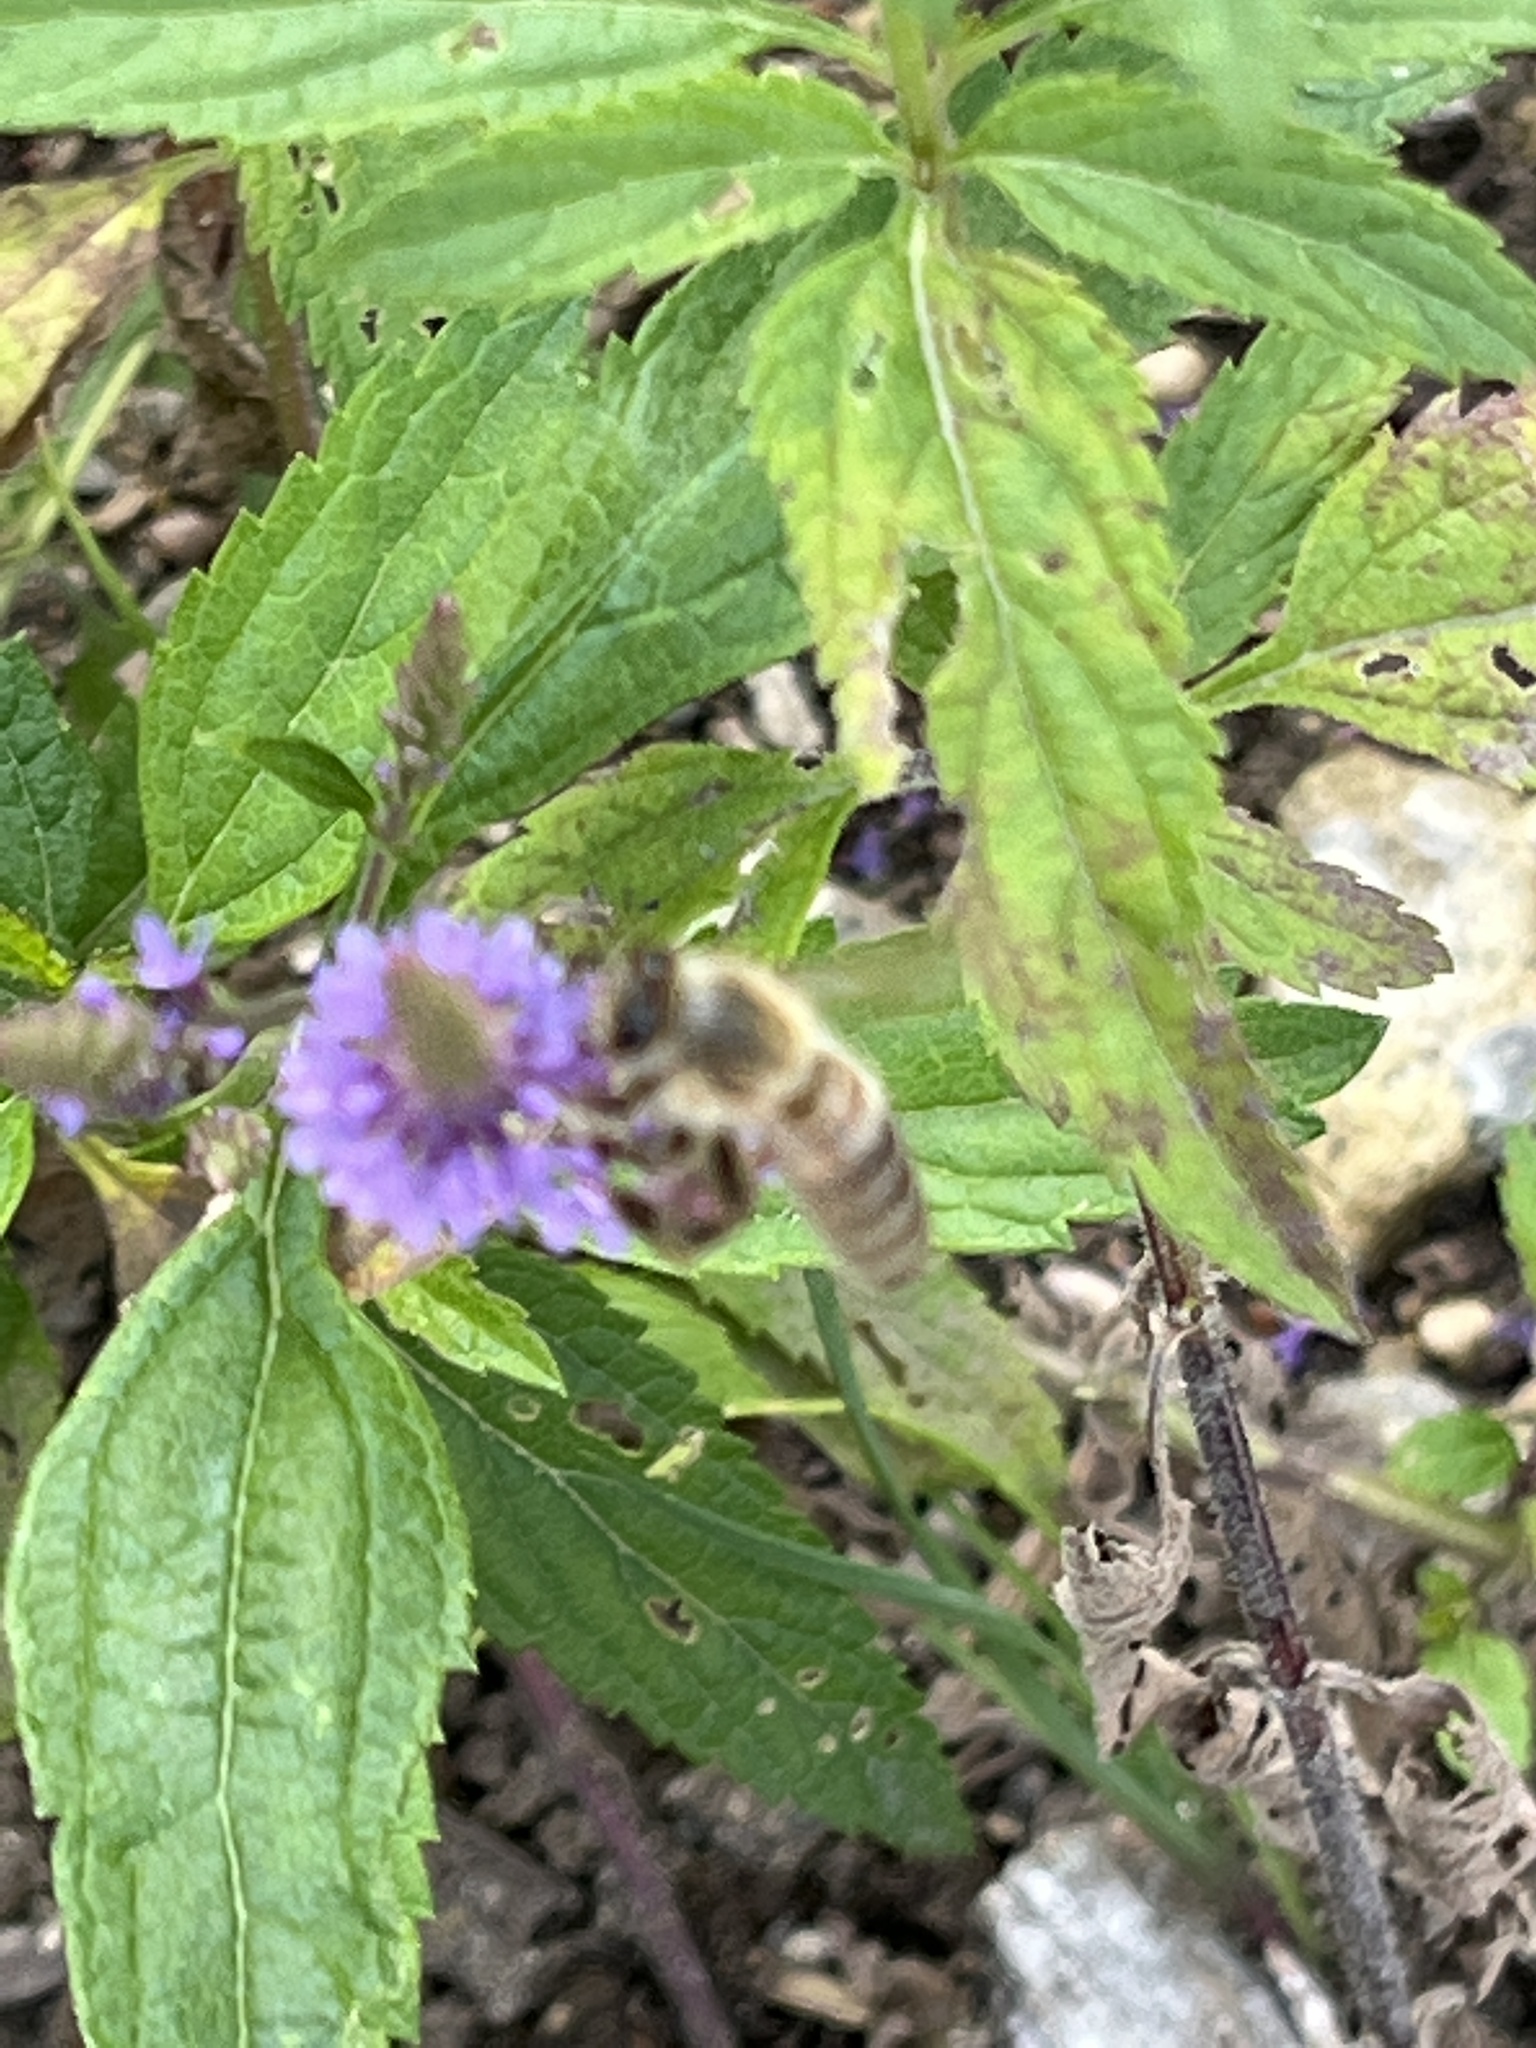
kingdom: Animalia
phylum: Arthropoda
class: Insecta
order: Hymenoptera
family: Apidae
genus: Apis
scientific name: Apis mellifera
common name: Honey bee
